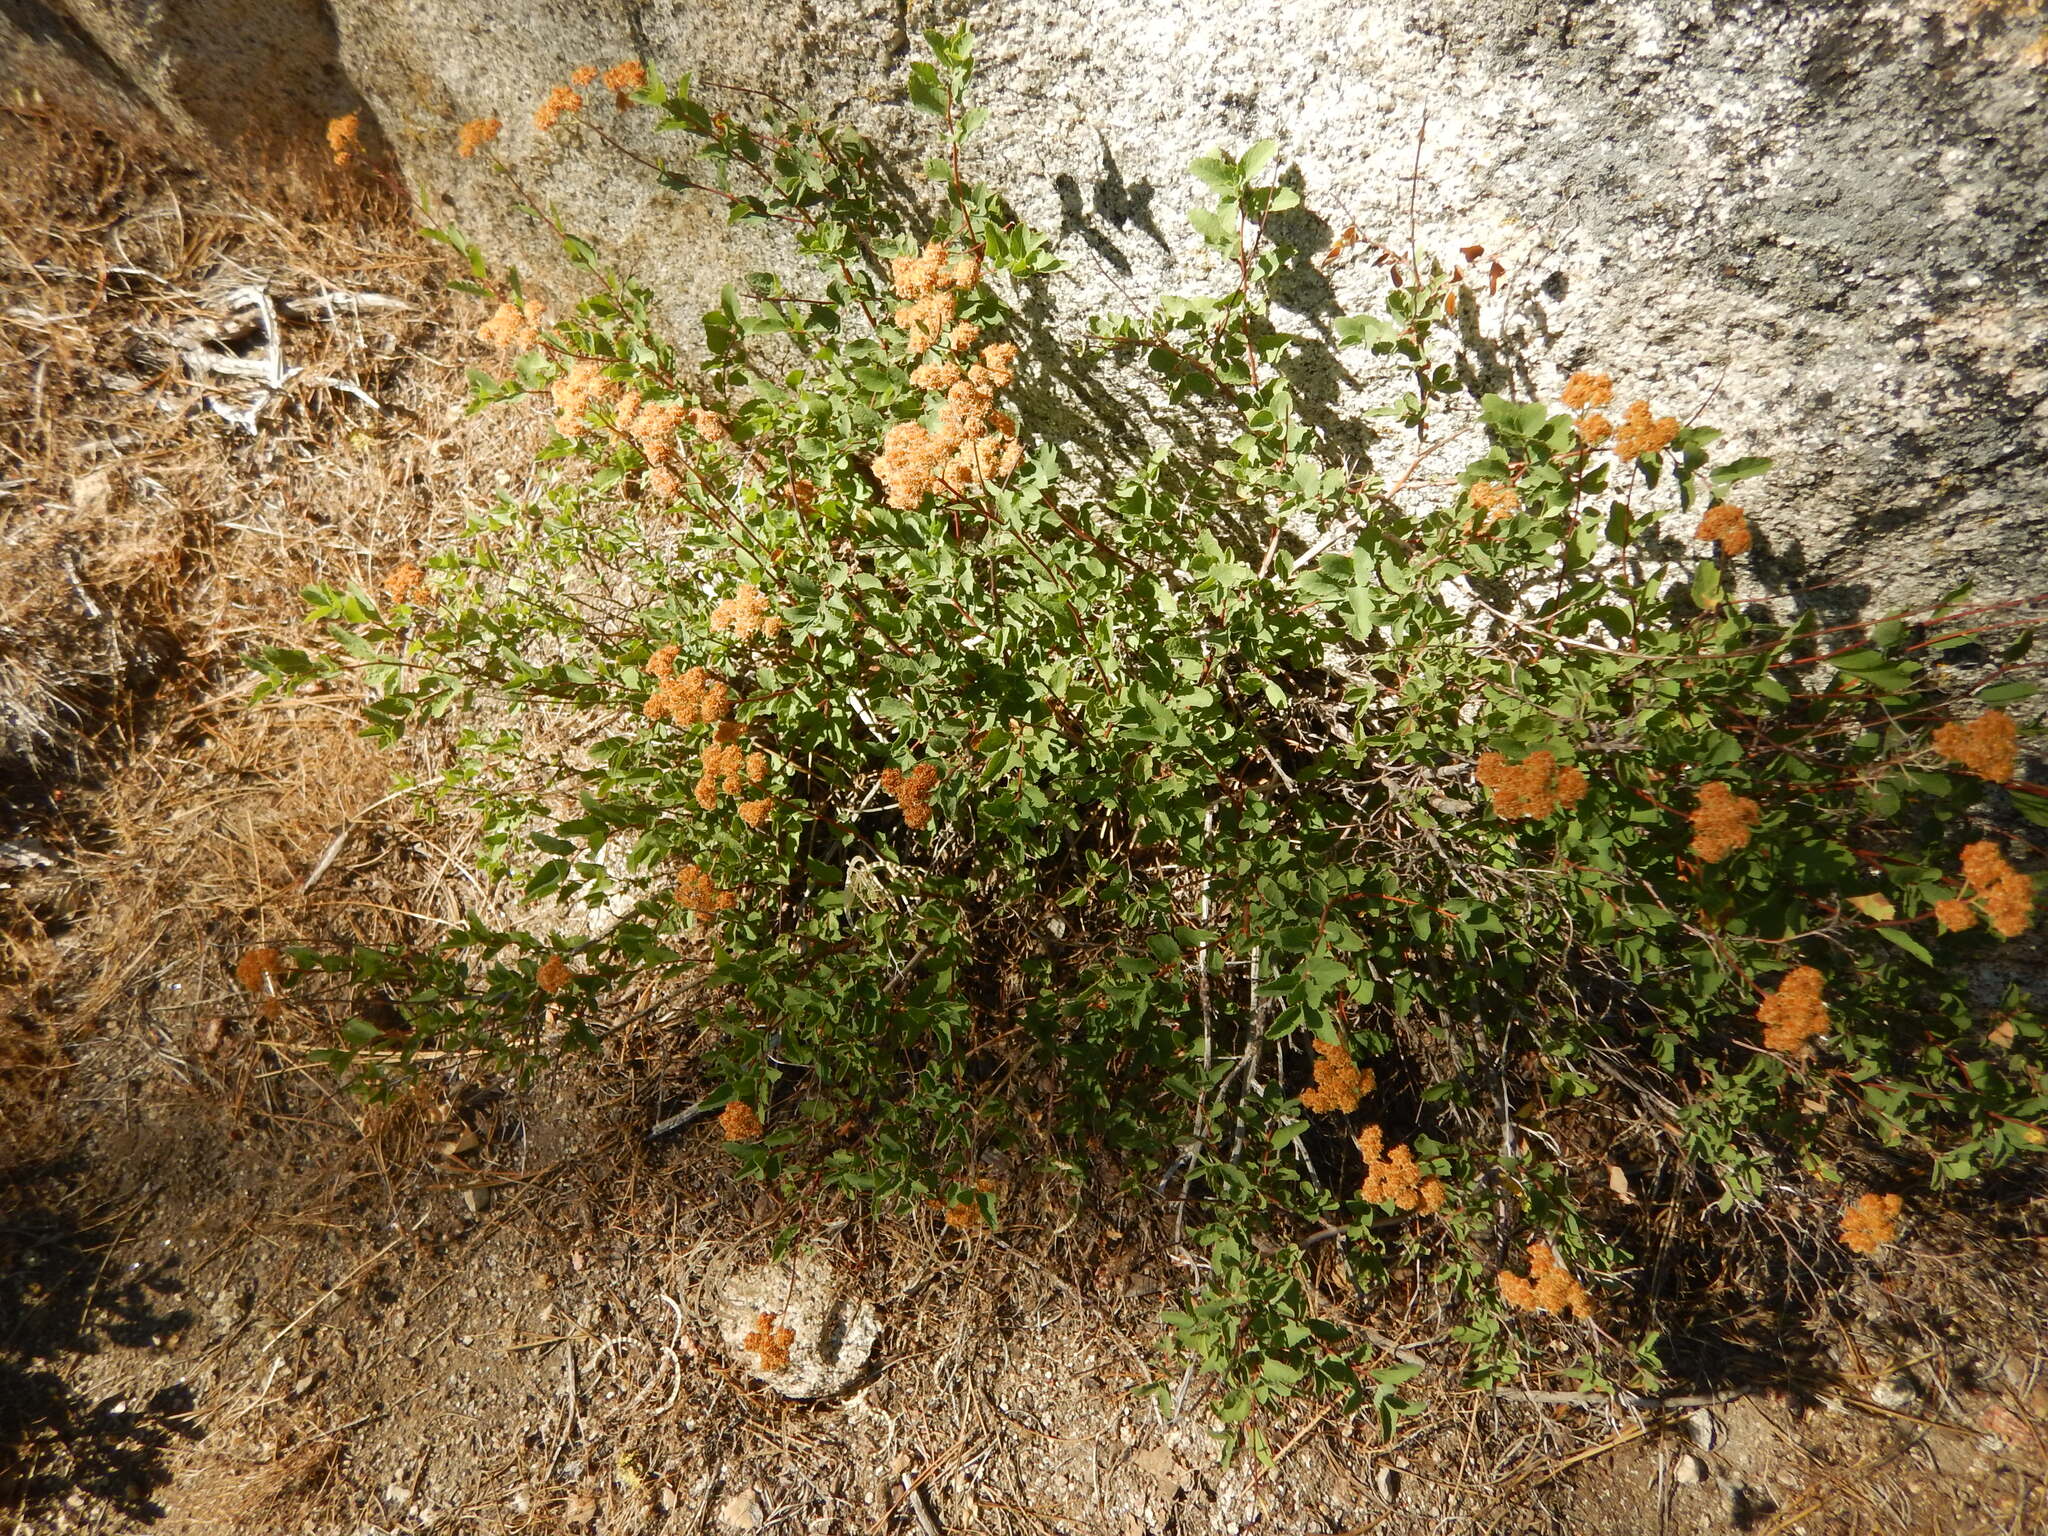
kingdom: Plantae
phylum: Tracheophyta
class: Magnoliopsida
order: Rosales
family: Rosaceae
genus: Spiraea
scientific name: Spiraea splendens
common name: Subalpine meadowsweet
